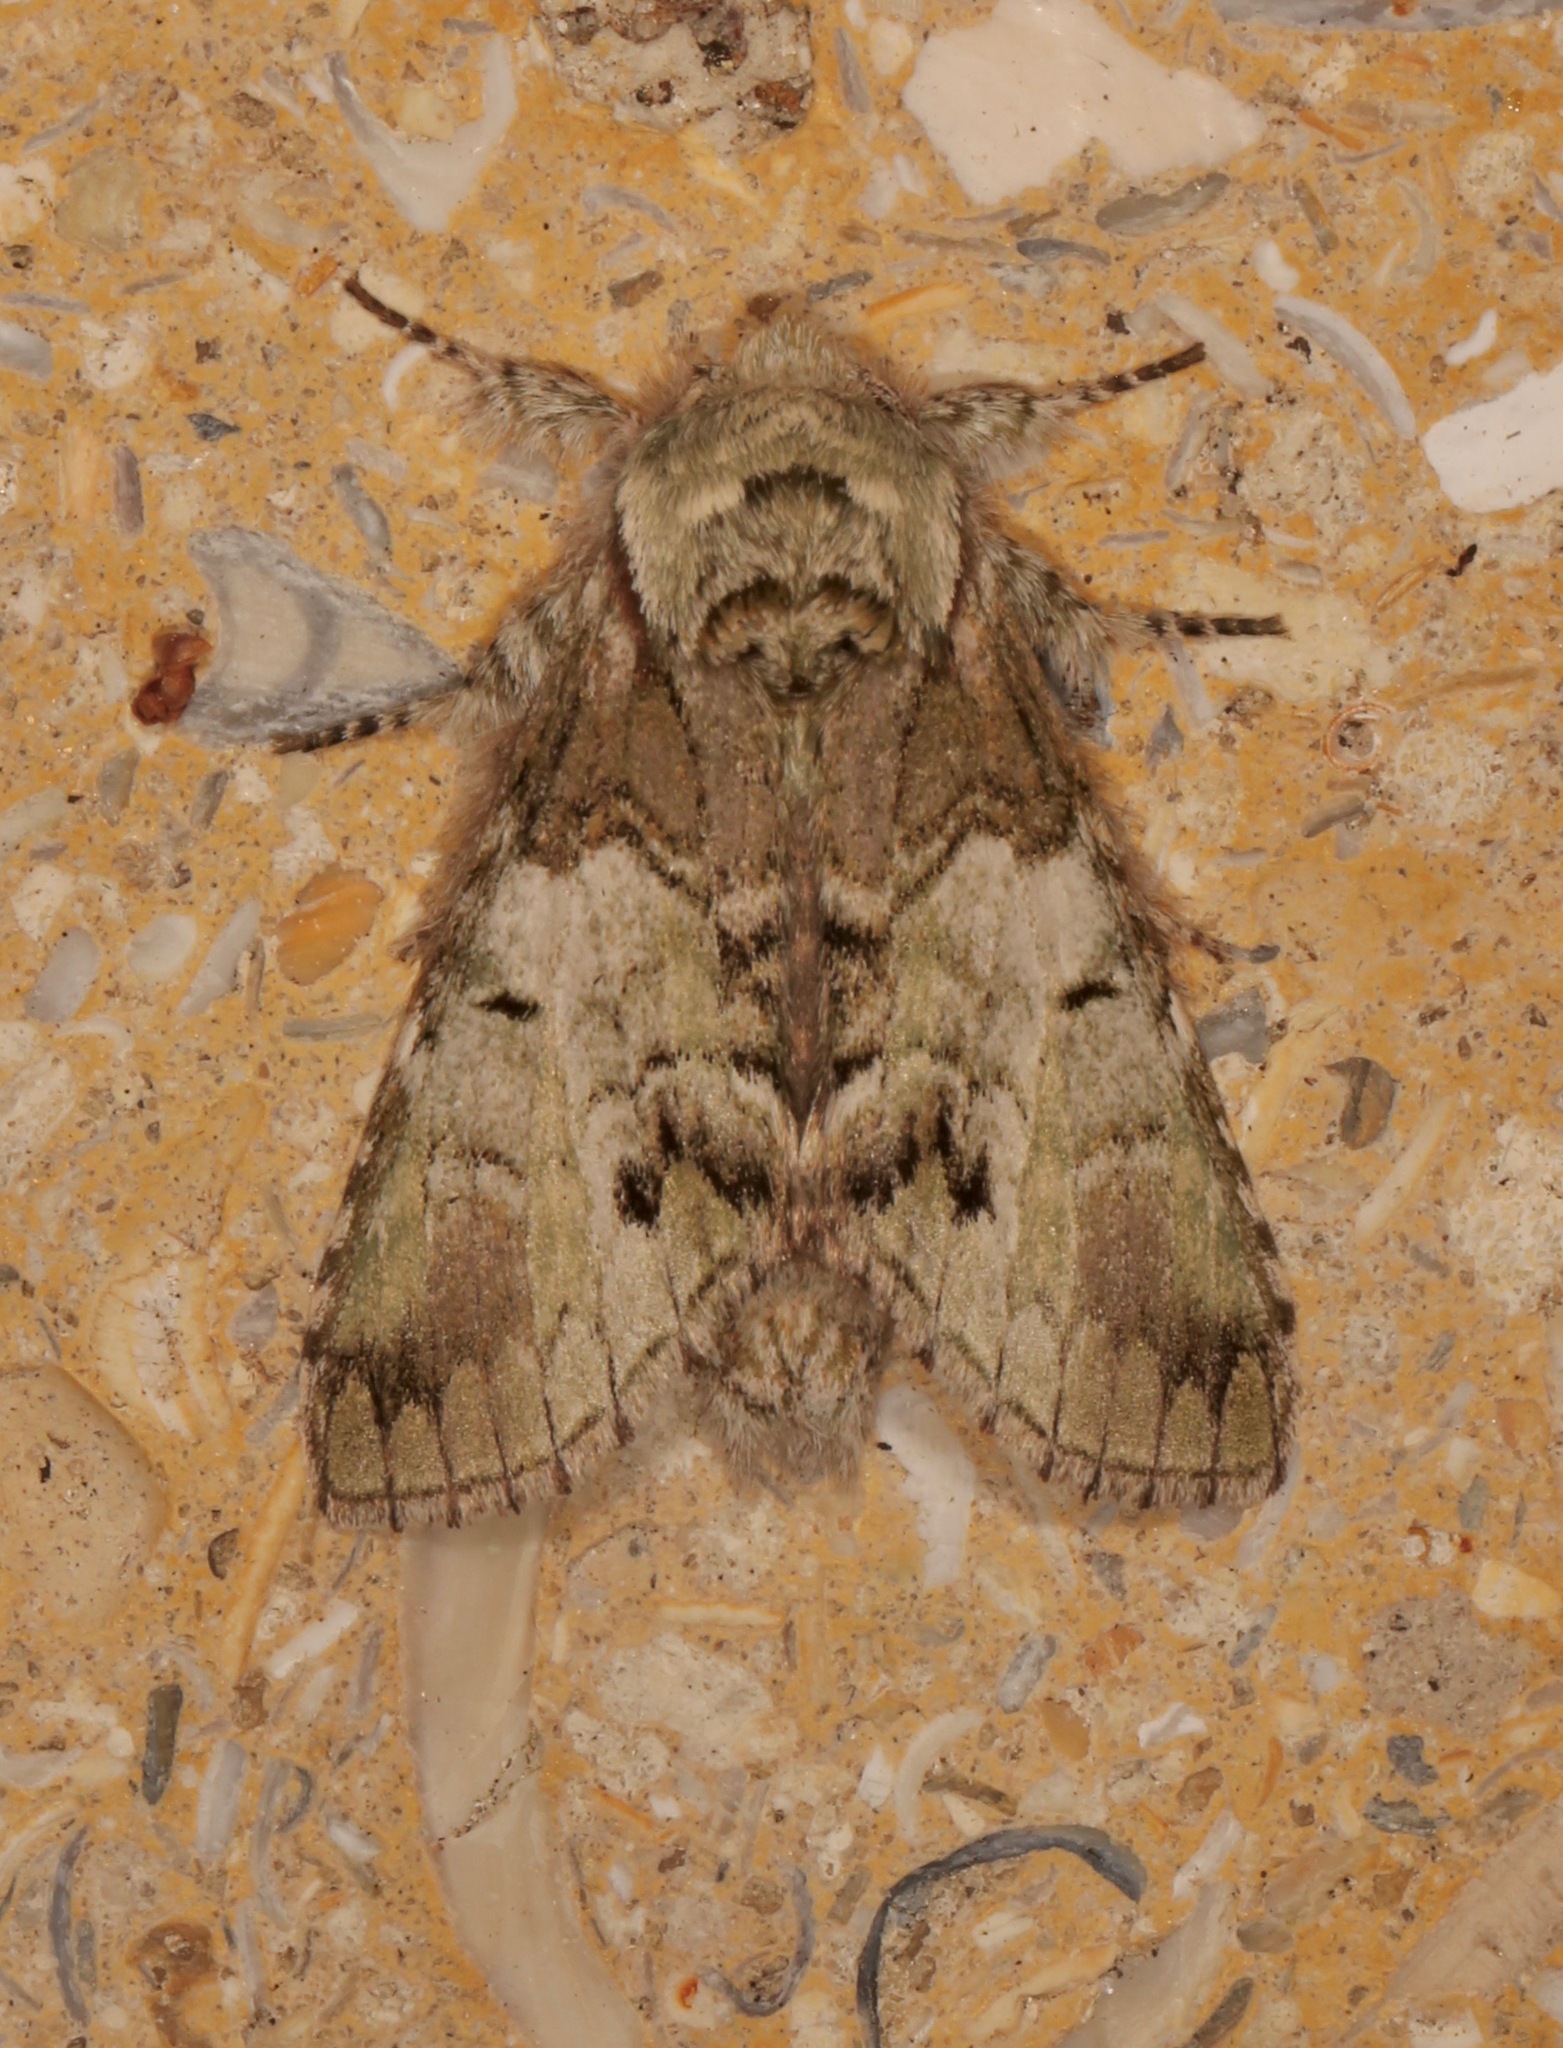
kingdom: Animalia
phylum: Arthropoda
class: Insecta
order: Lepidoptera
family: Notodontidae
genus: Macrurocampa
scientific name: Macrurocampa marthesia
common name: Mottled prominent
